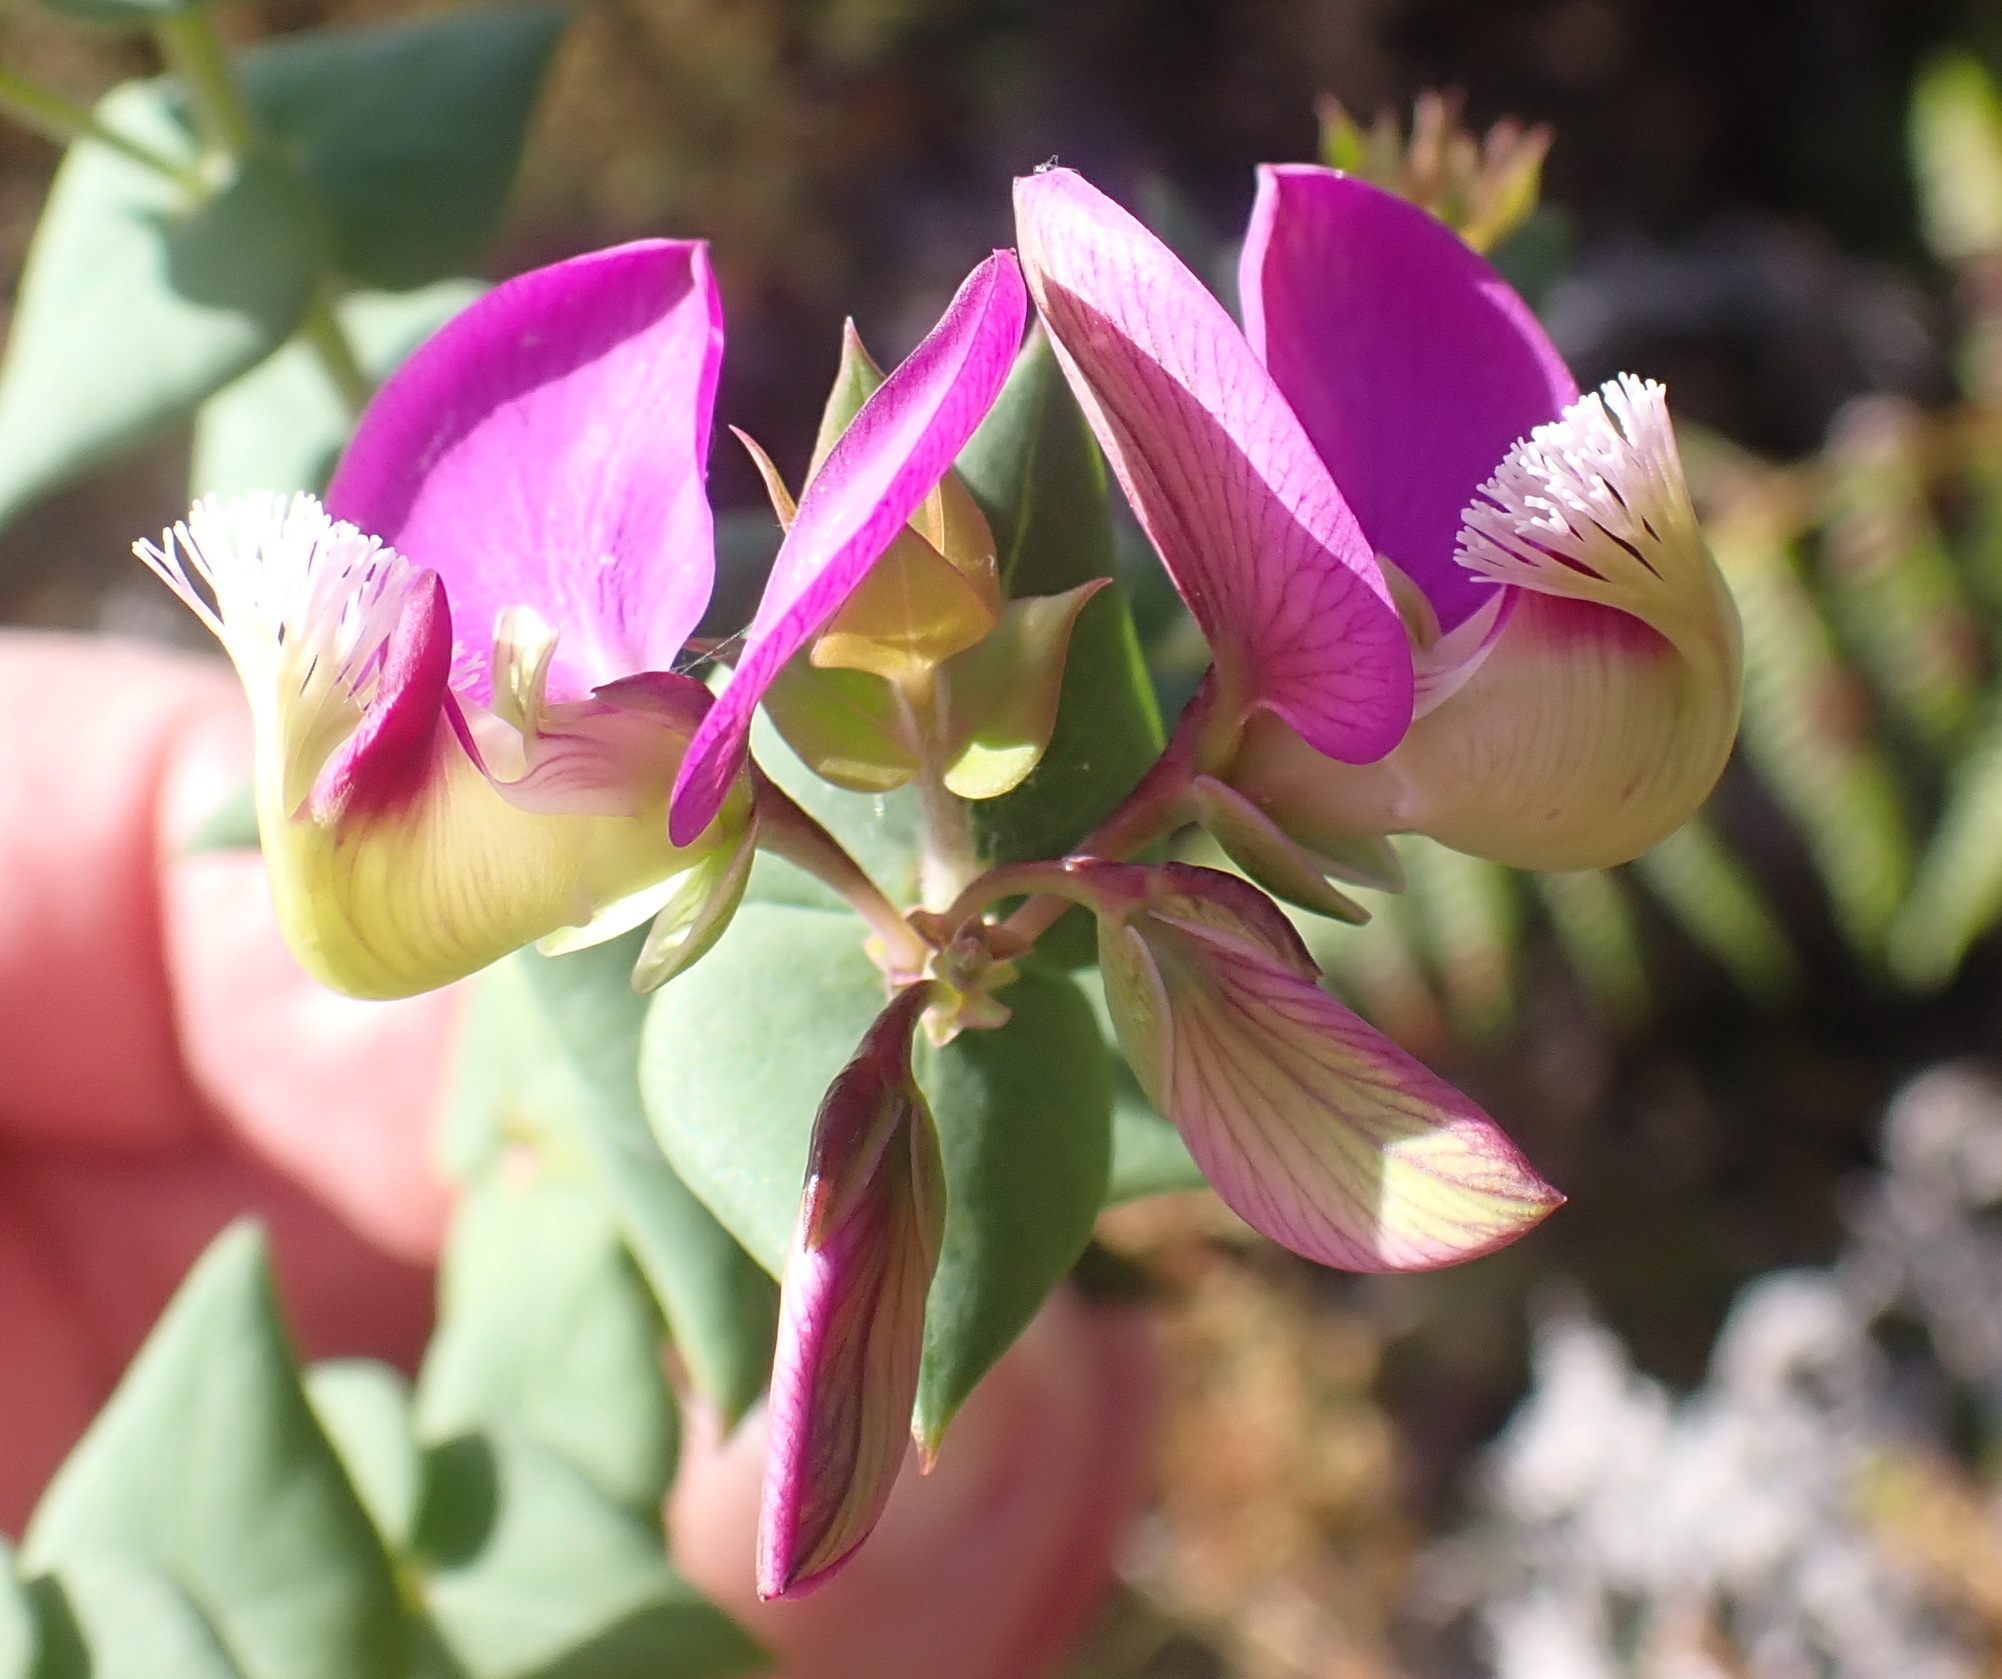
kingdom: Plantae
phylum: Tracheophyta
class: Magnoliopsida
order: Fabales
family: Polygalaceae
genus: Polygala
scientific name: Polygala fruticosa
